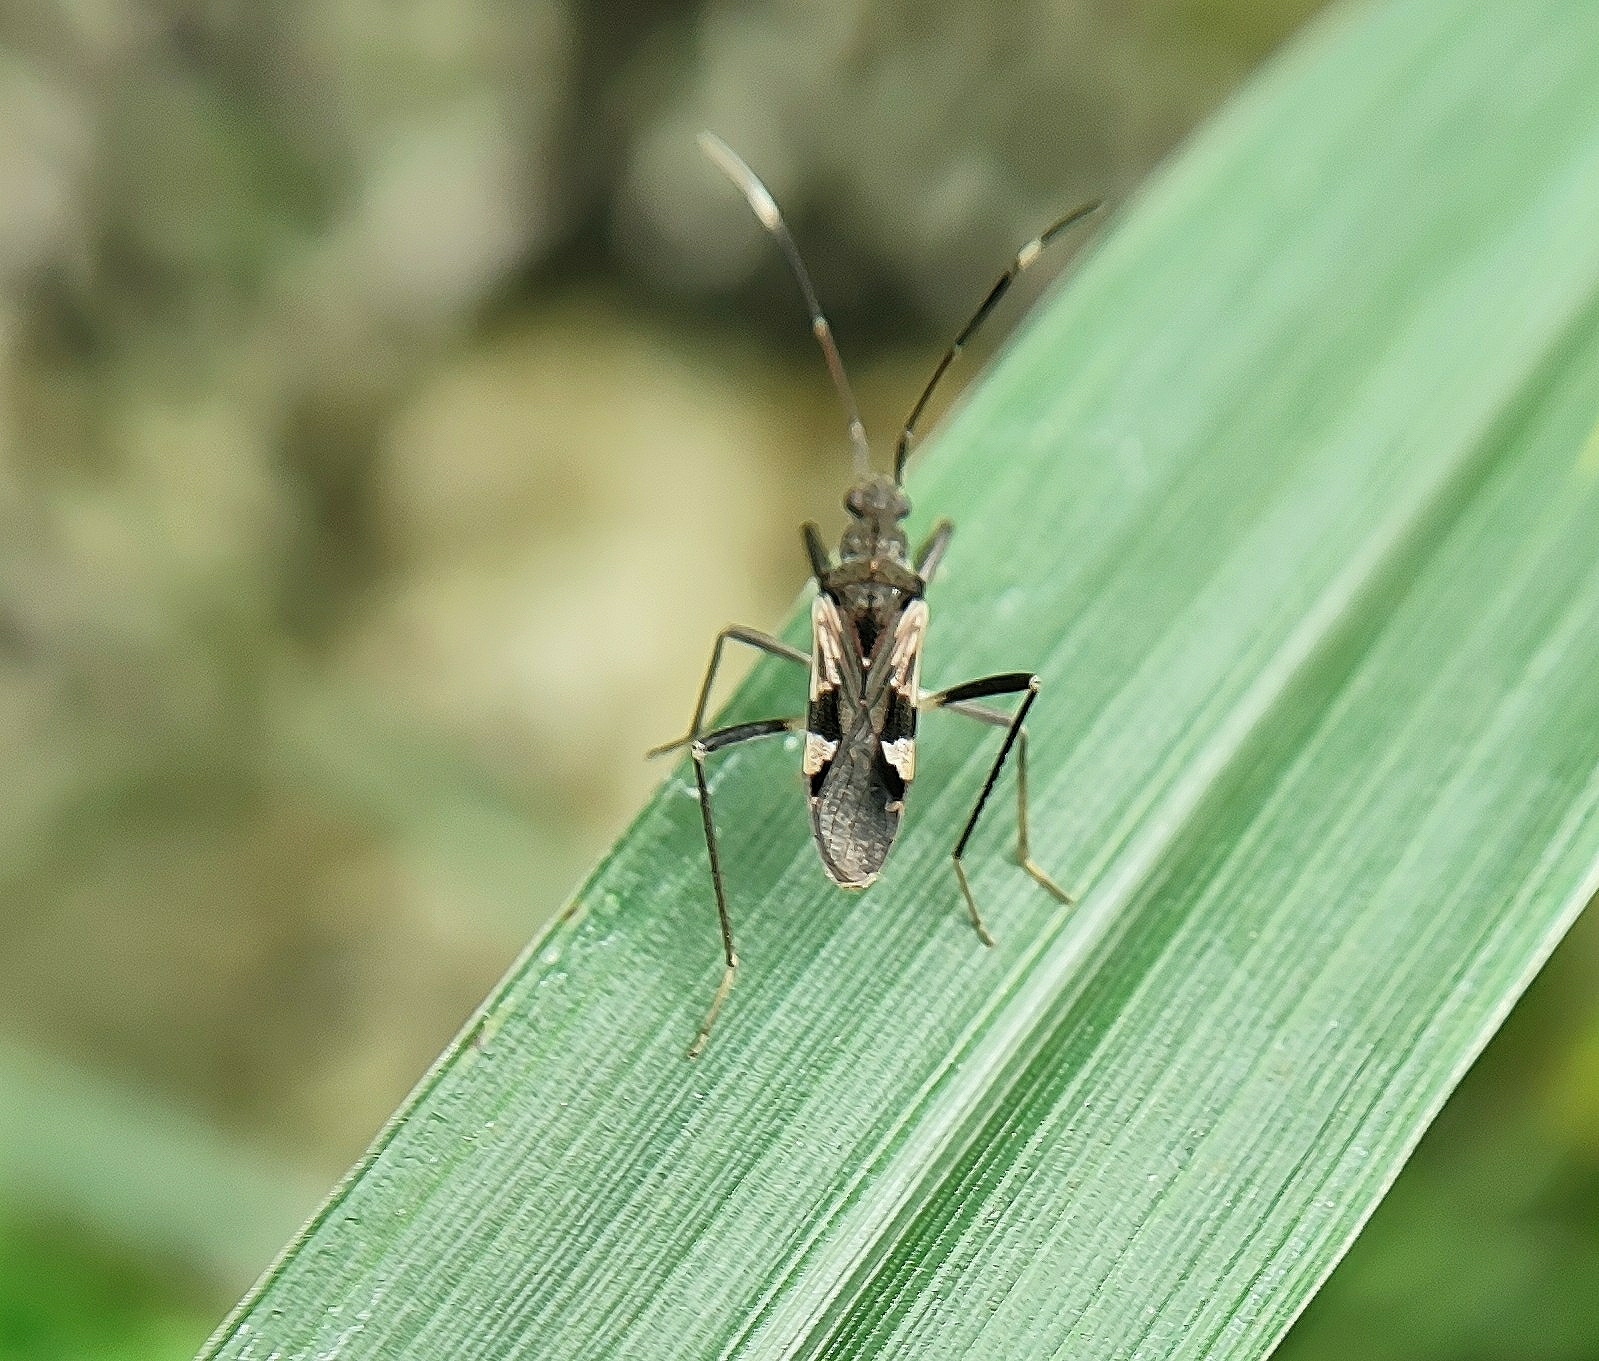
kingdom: Animalia
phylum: Arthropoda
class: Insecta
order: Hemiptera
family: Rhyparochromidae
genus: Metochus
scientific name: Metochus uniguttatus
